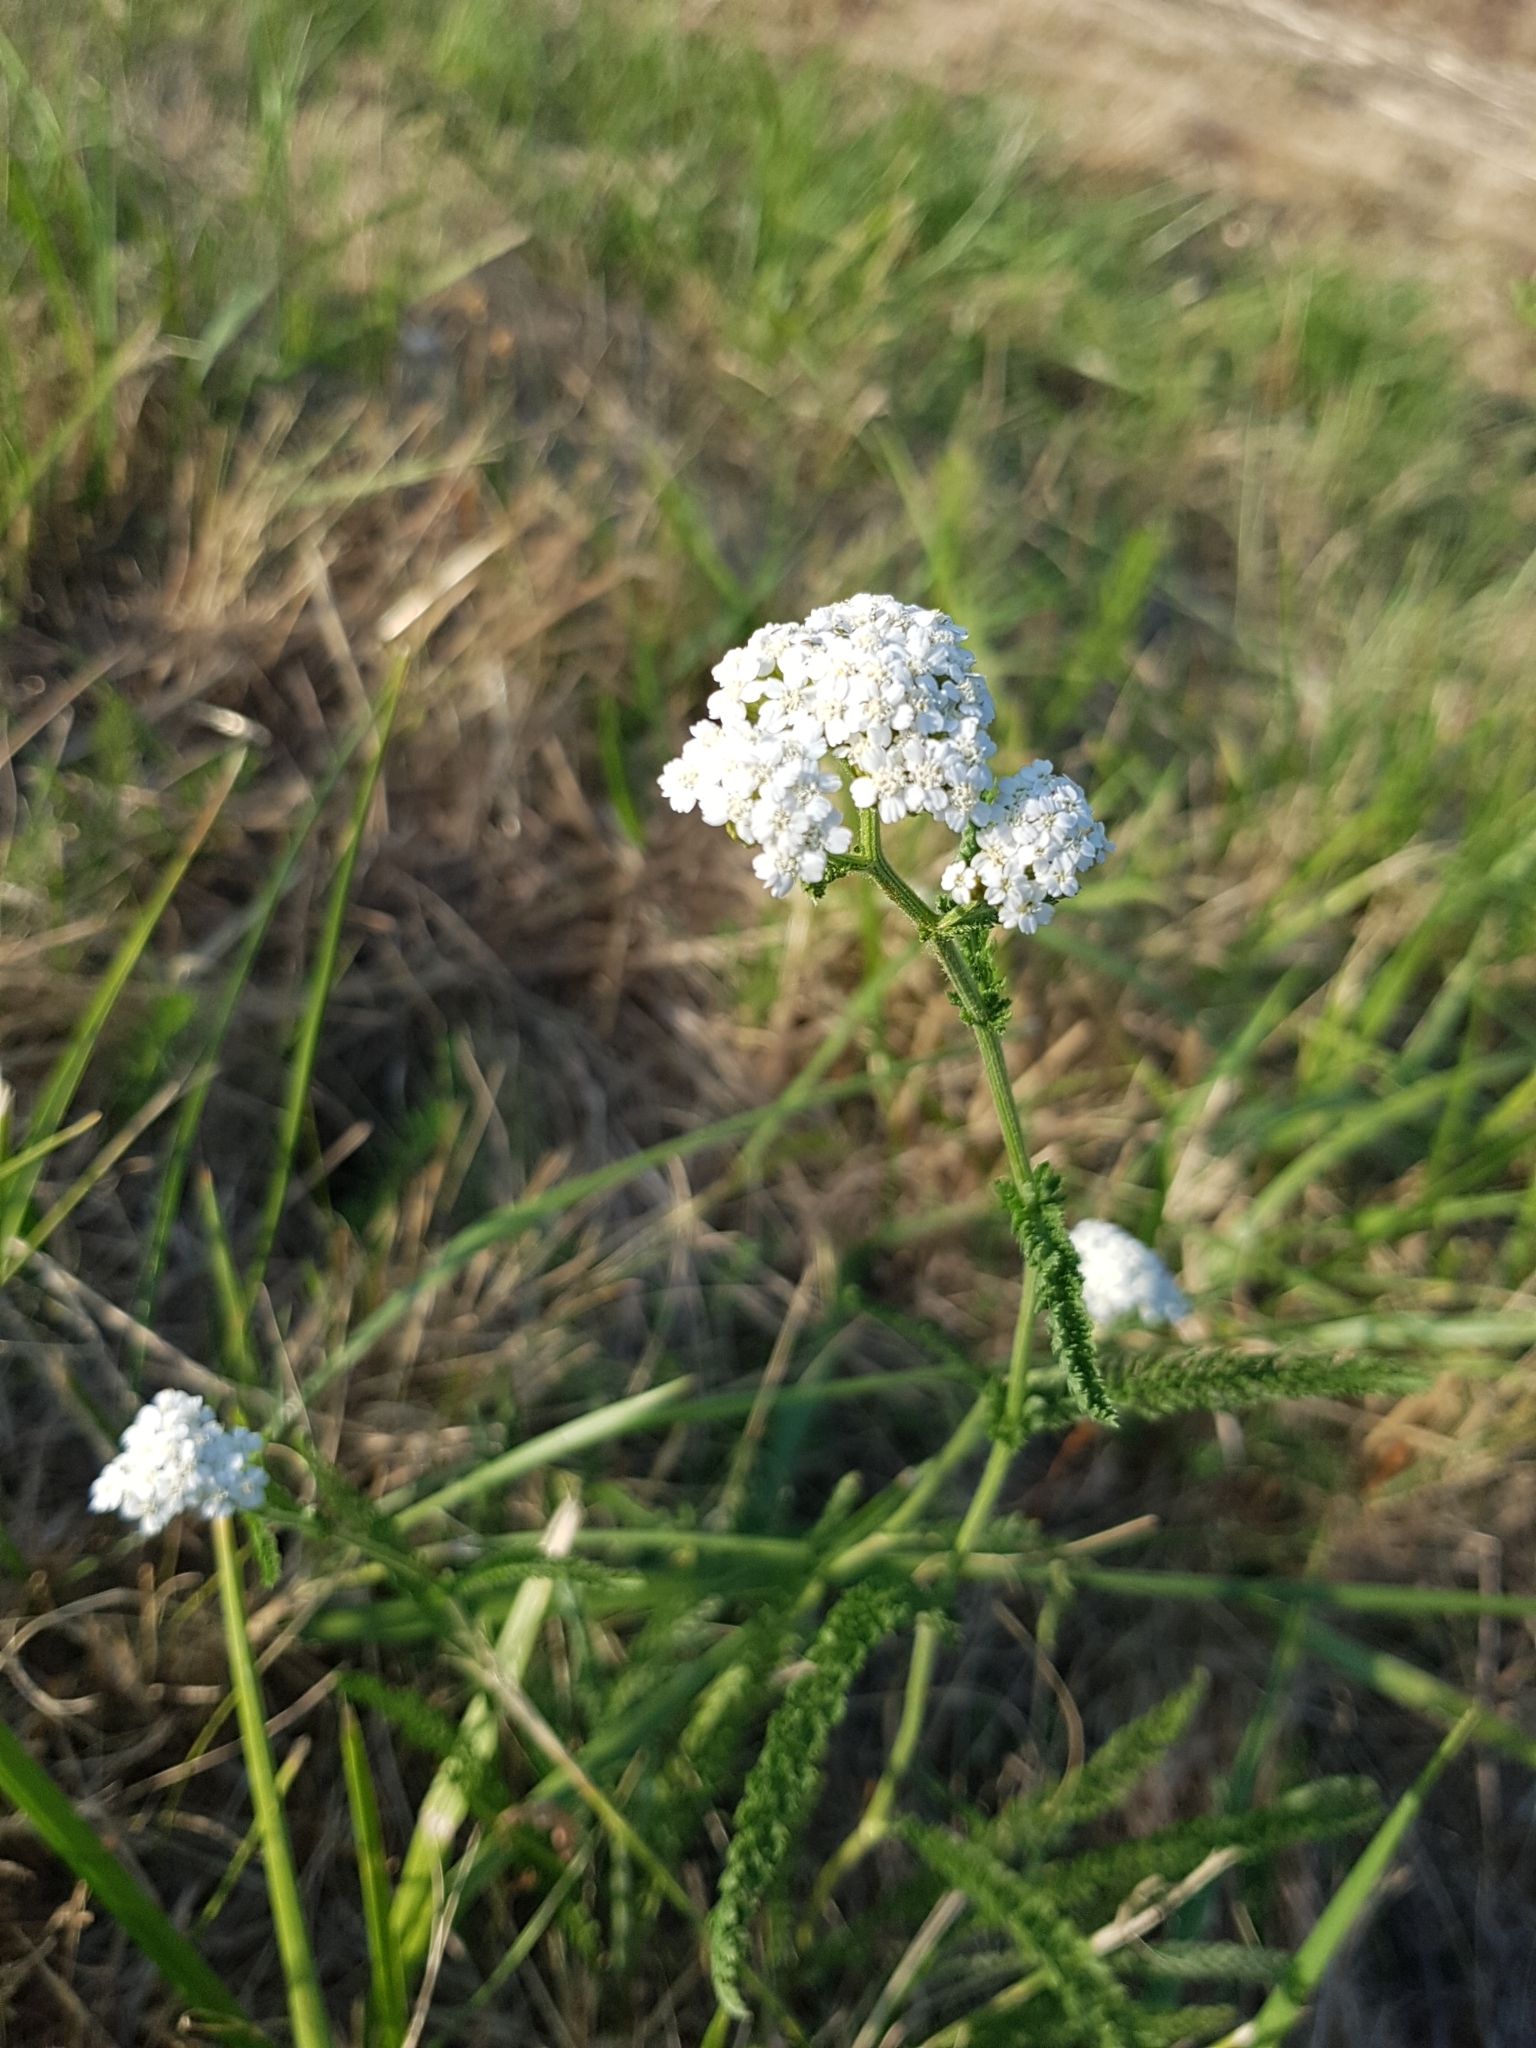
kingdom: Plantae
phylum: Tracheophyta
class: Magnoliopsida
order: Asterales
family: Asteraceae
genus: Achillea
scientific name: Achillea millefolium
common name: Yarrow
